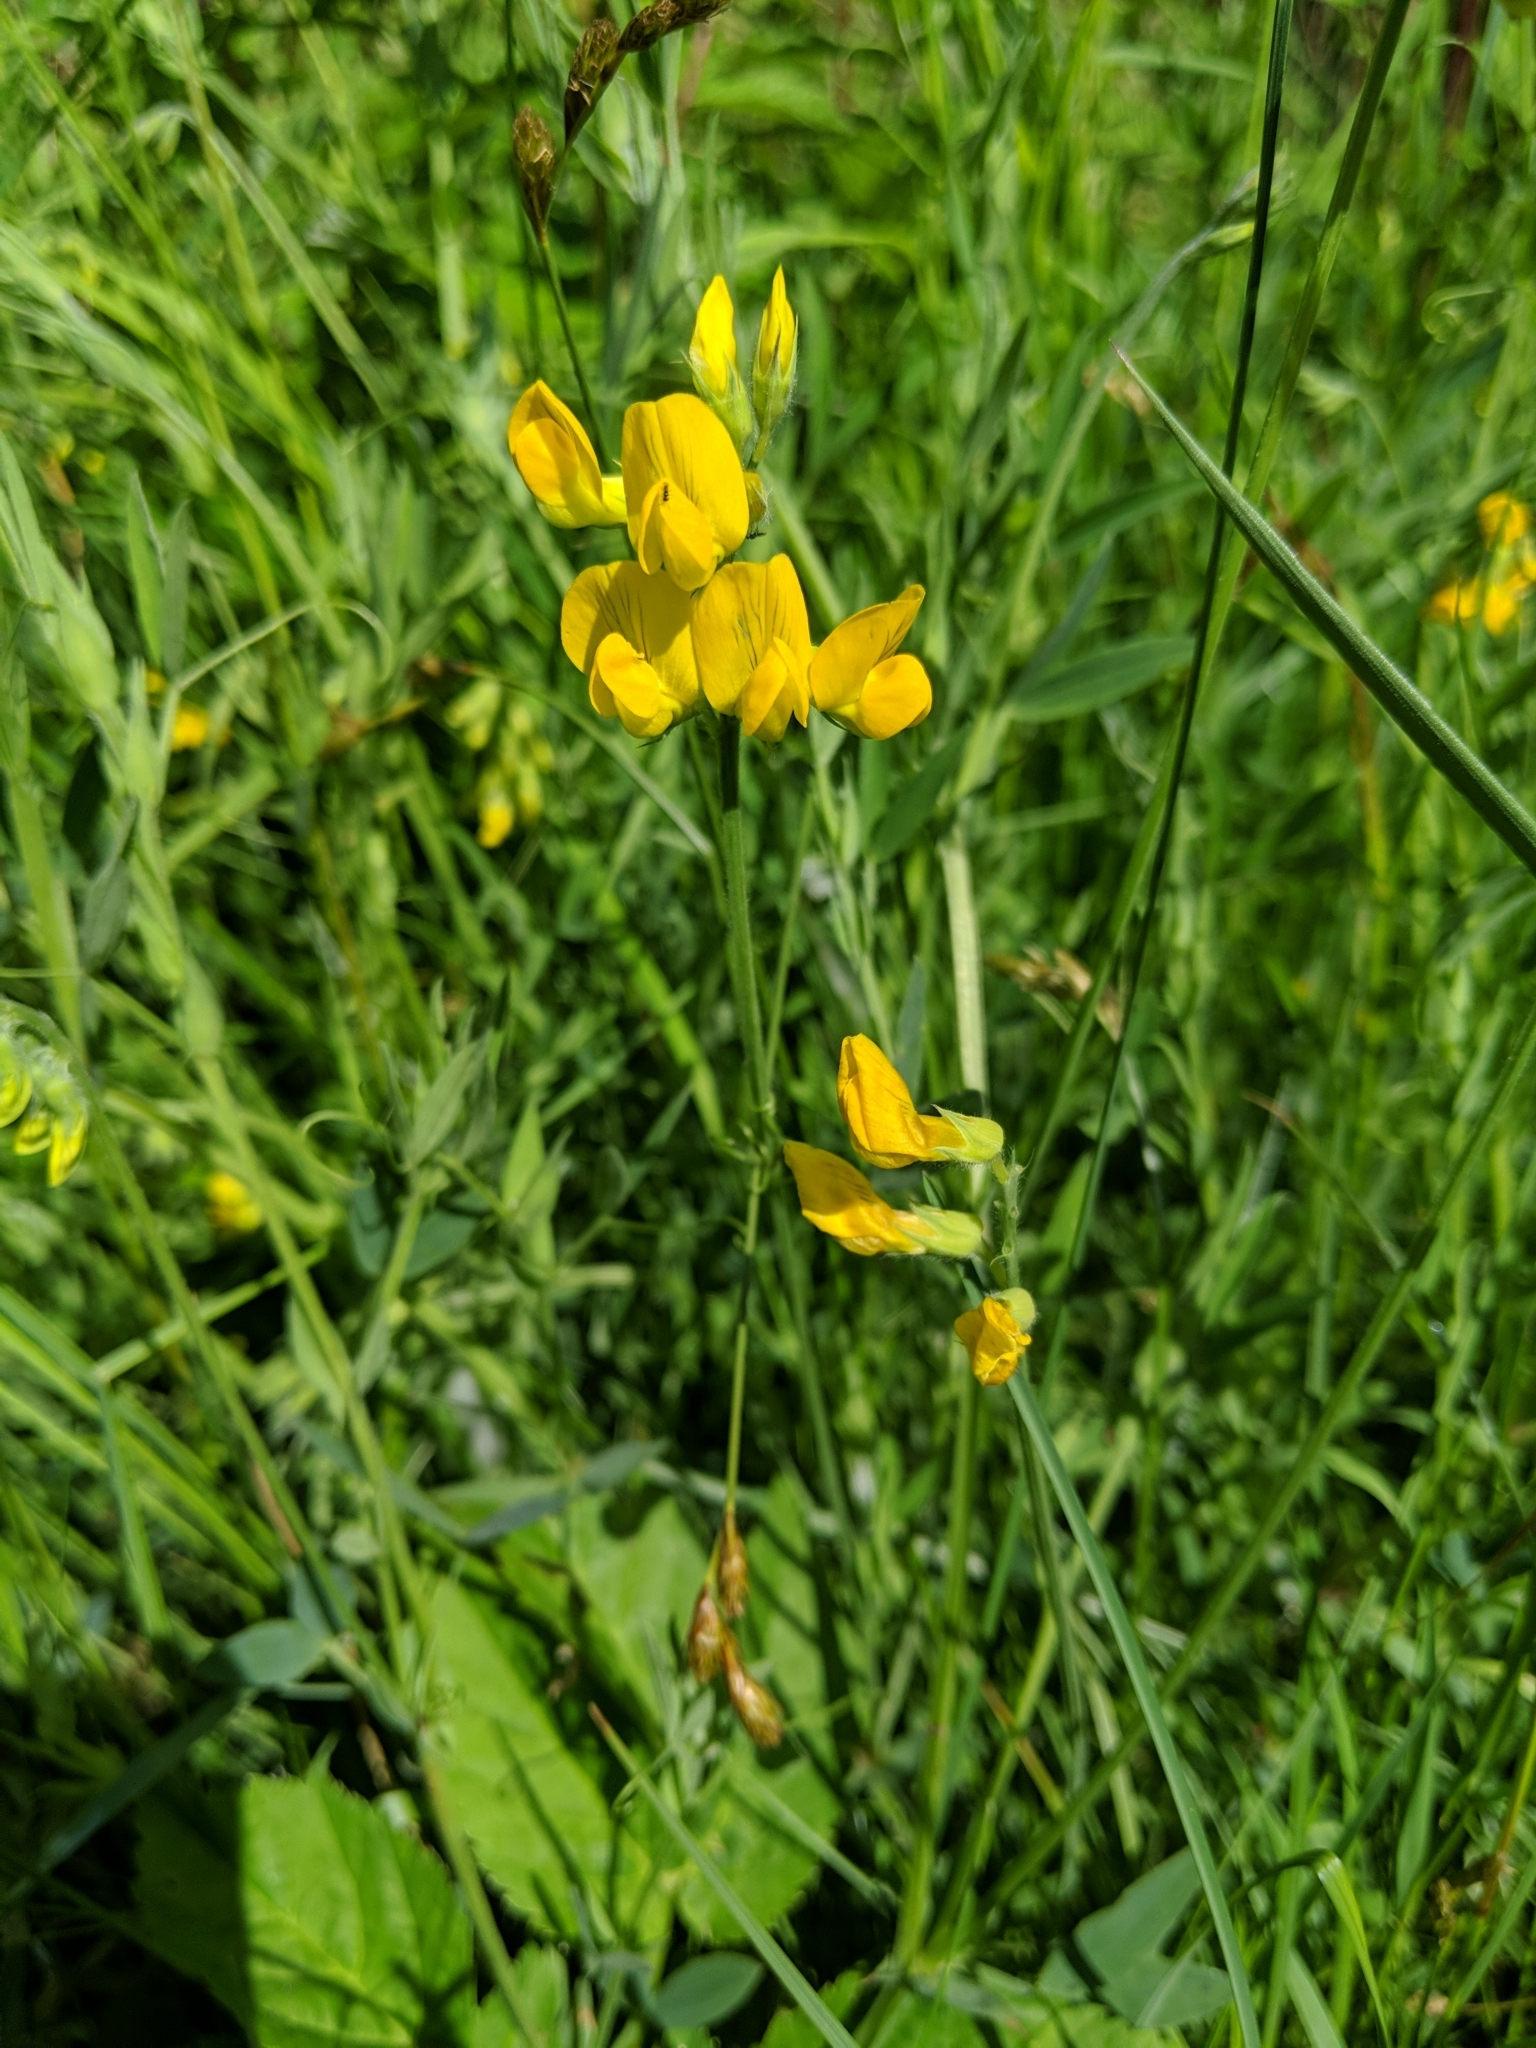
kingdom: Plantae
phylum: Tracheophyta
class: Magnoliopsida
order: Fabales
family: Fabaceae
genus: Lathyrus
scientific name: Lathyrus pratensis
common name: Meadow vetchling
